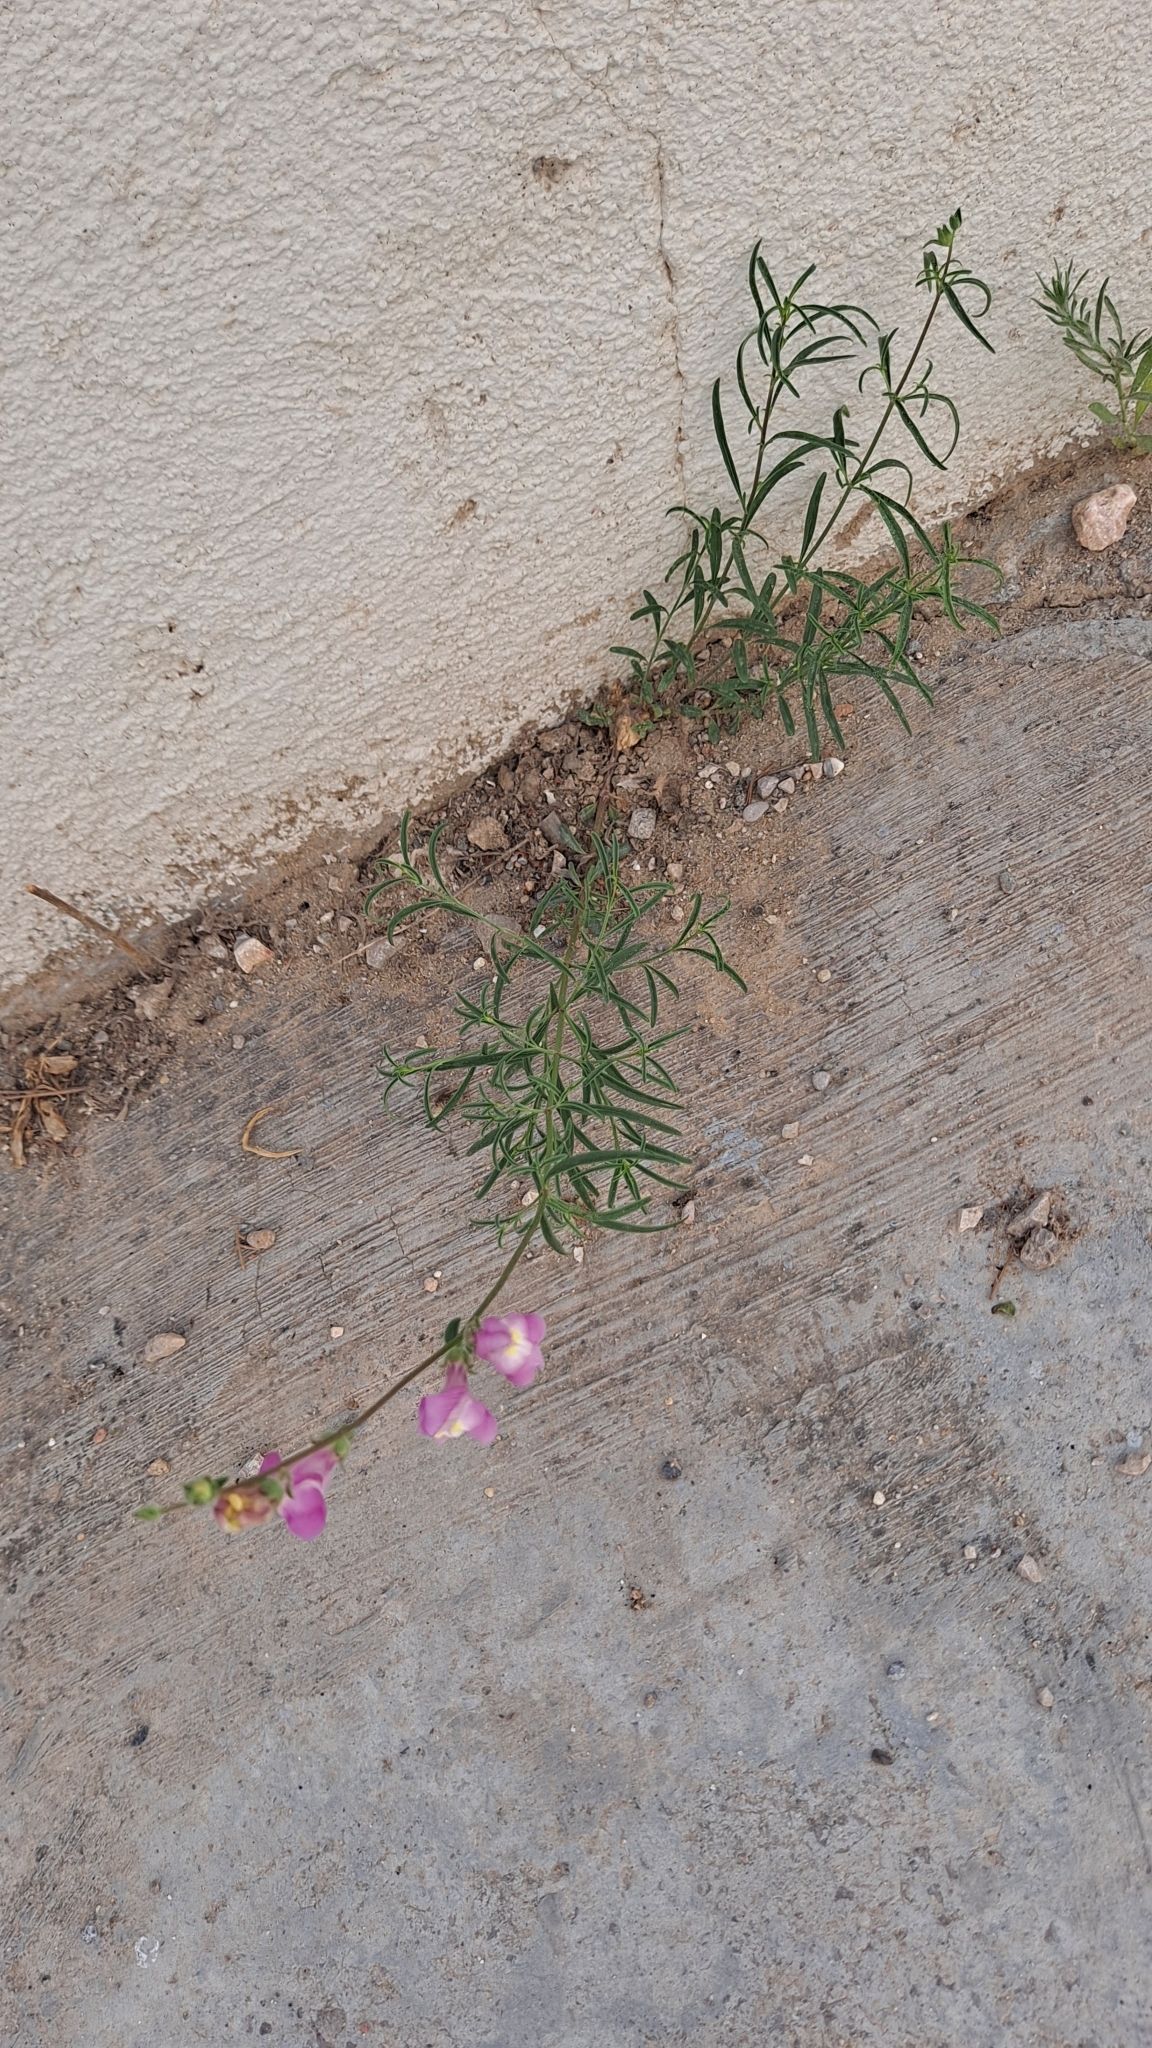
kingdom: Plantae
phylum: Tracheophyta
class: Magnoliopsida
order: Lamiales
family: Plantaginaceae
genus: Antirrhinum
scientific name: Antirrhinum litigiosum
